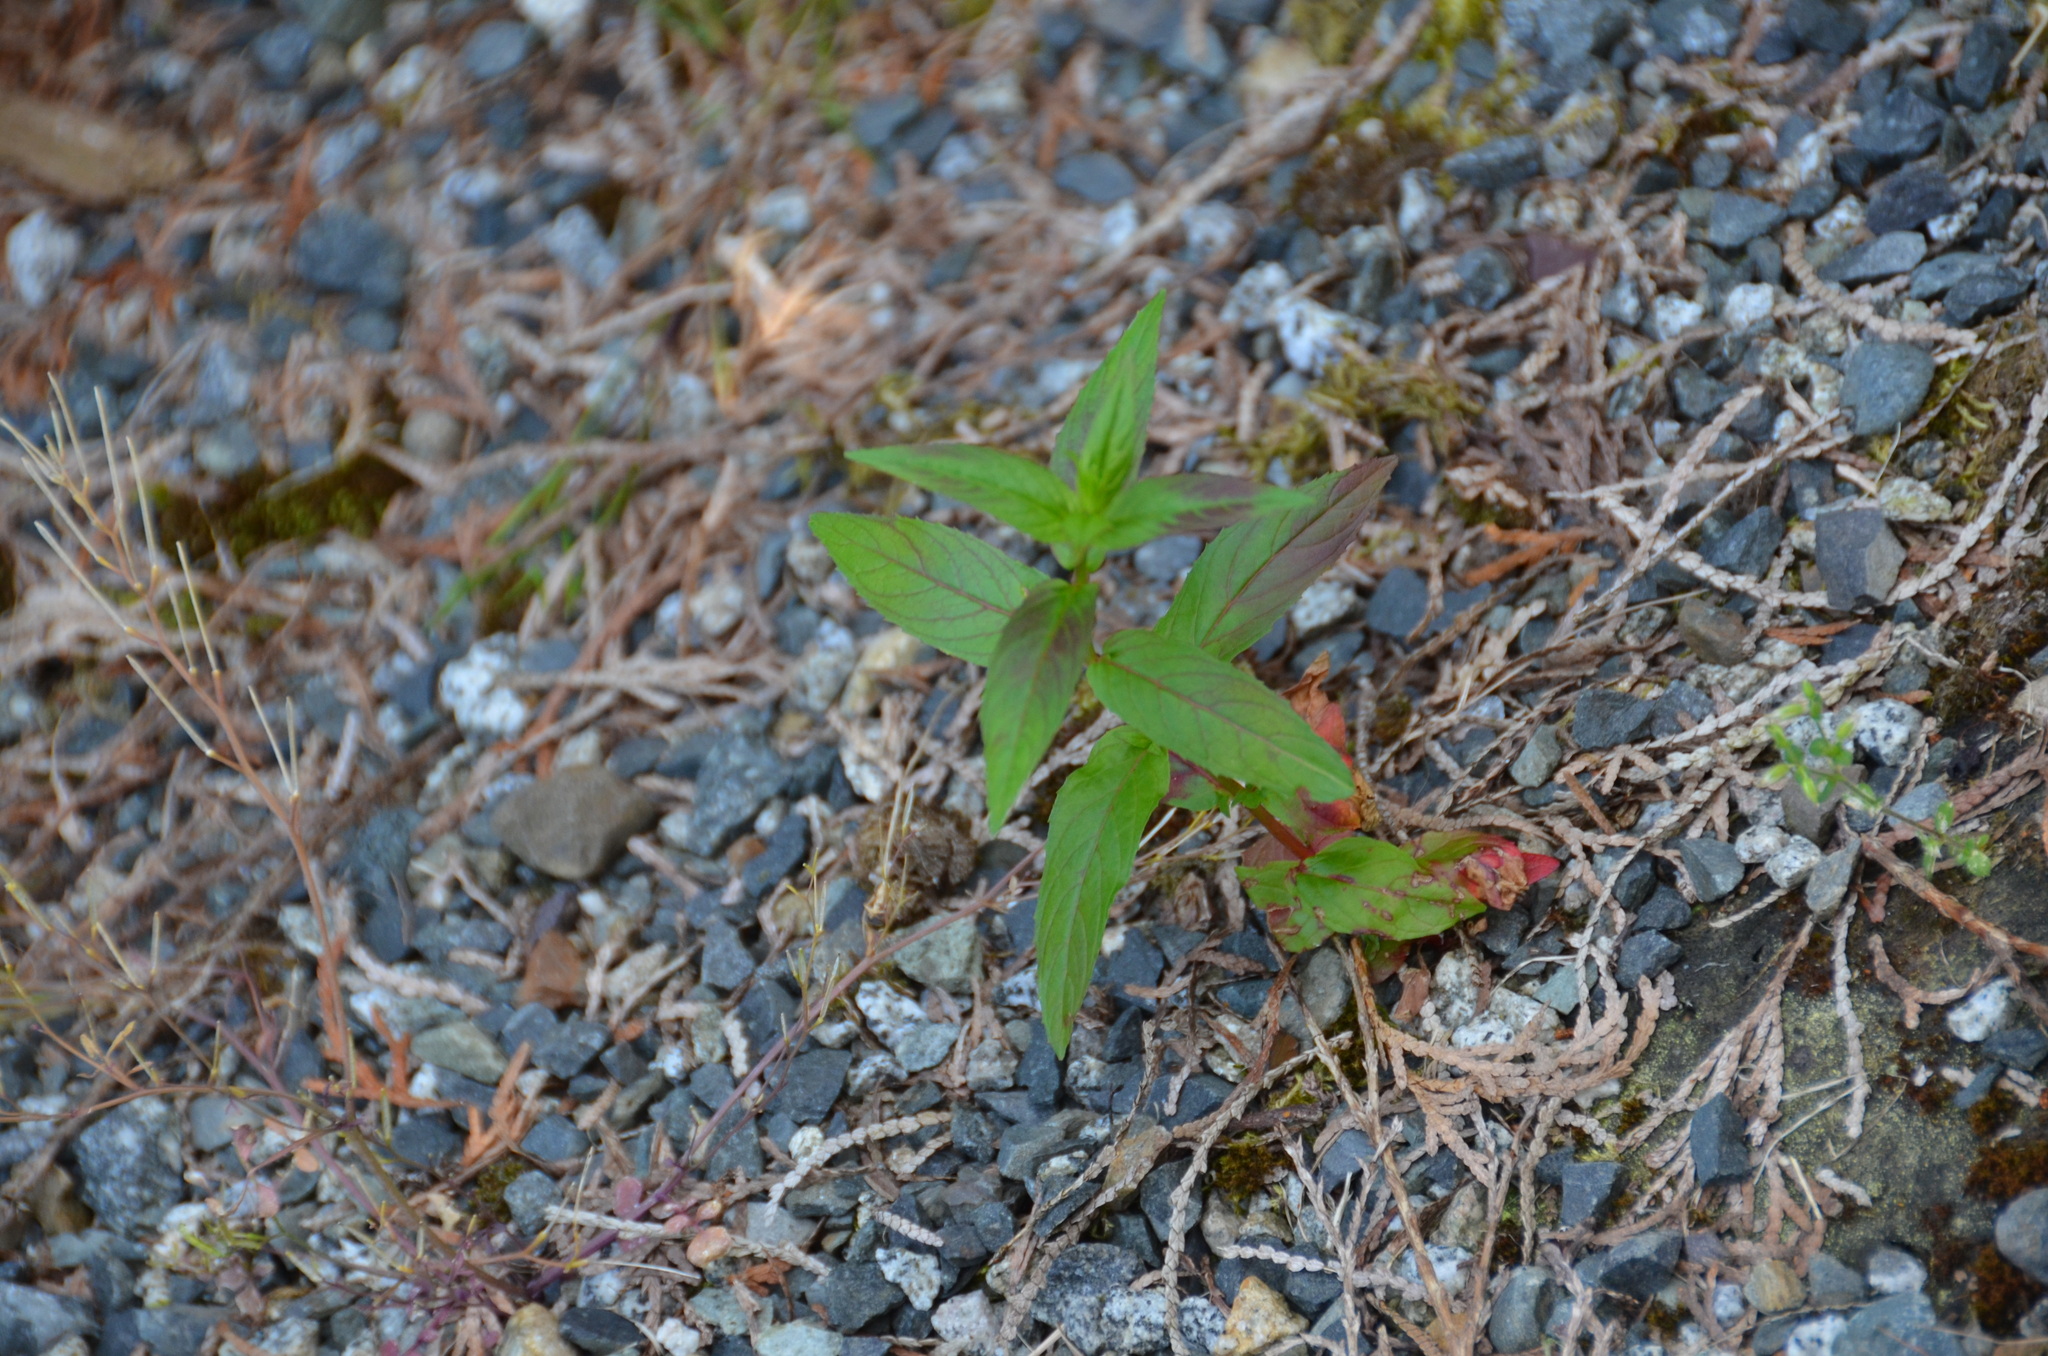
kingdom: Plantae
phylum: Tracheophyta
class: Magnoliopsida
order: Myrtales
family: Onagraceae
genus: Epilobium
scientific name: Epilobium ciliatum
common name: American willowherb
